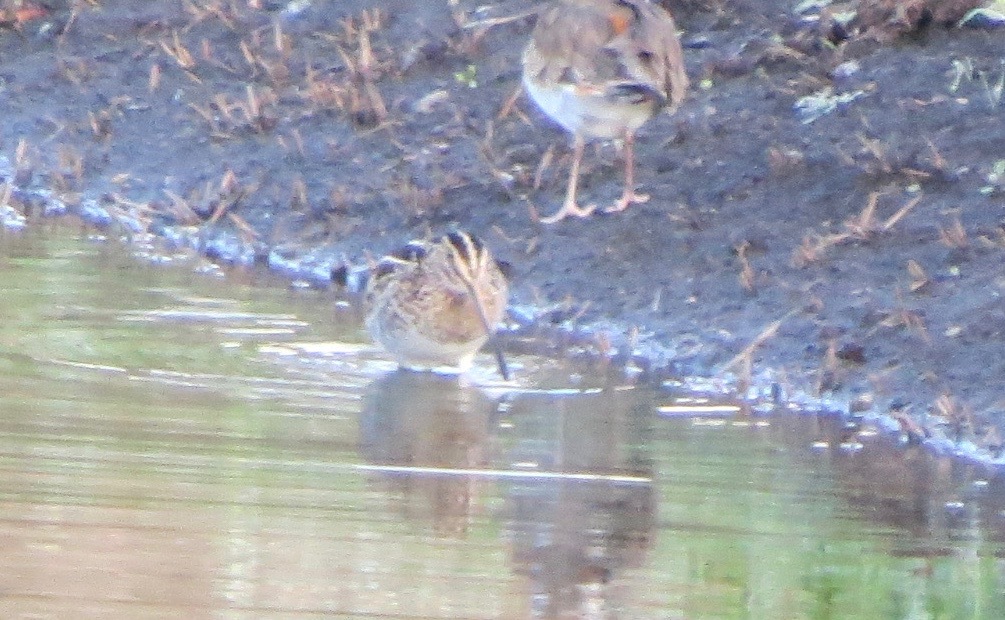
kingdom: Animalia
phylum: Chordata
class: Aves
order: Charadriiformes
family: Scolopacidae
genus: Gallinago
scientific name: Gallinago delicata
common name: Wilson's snipe
